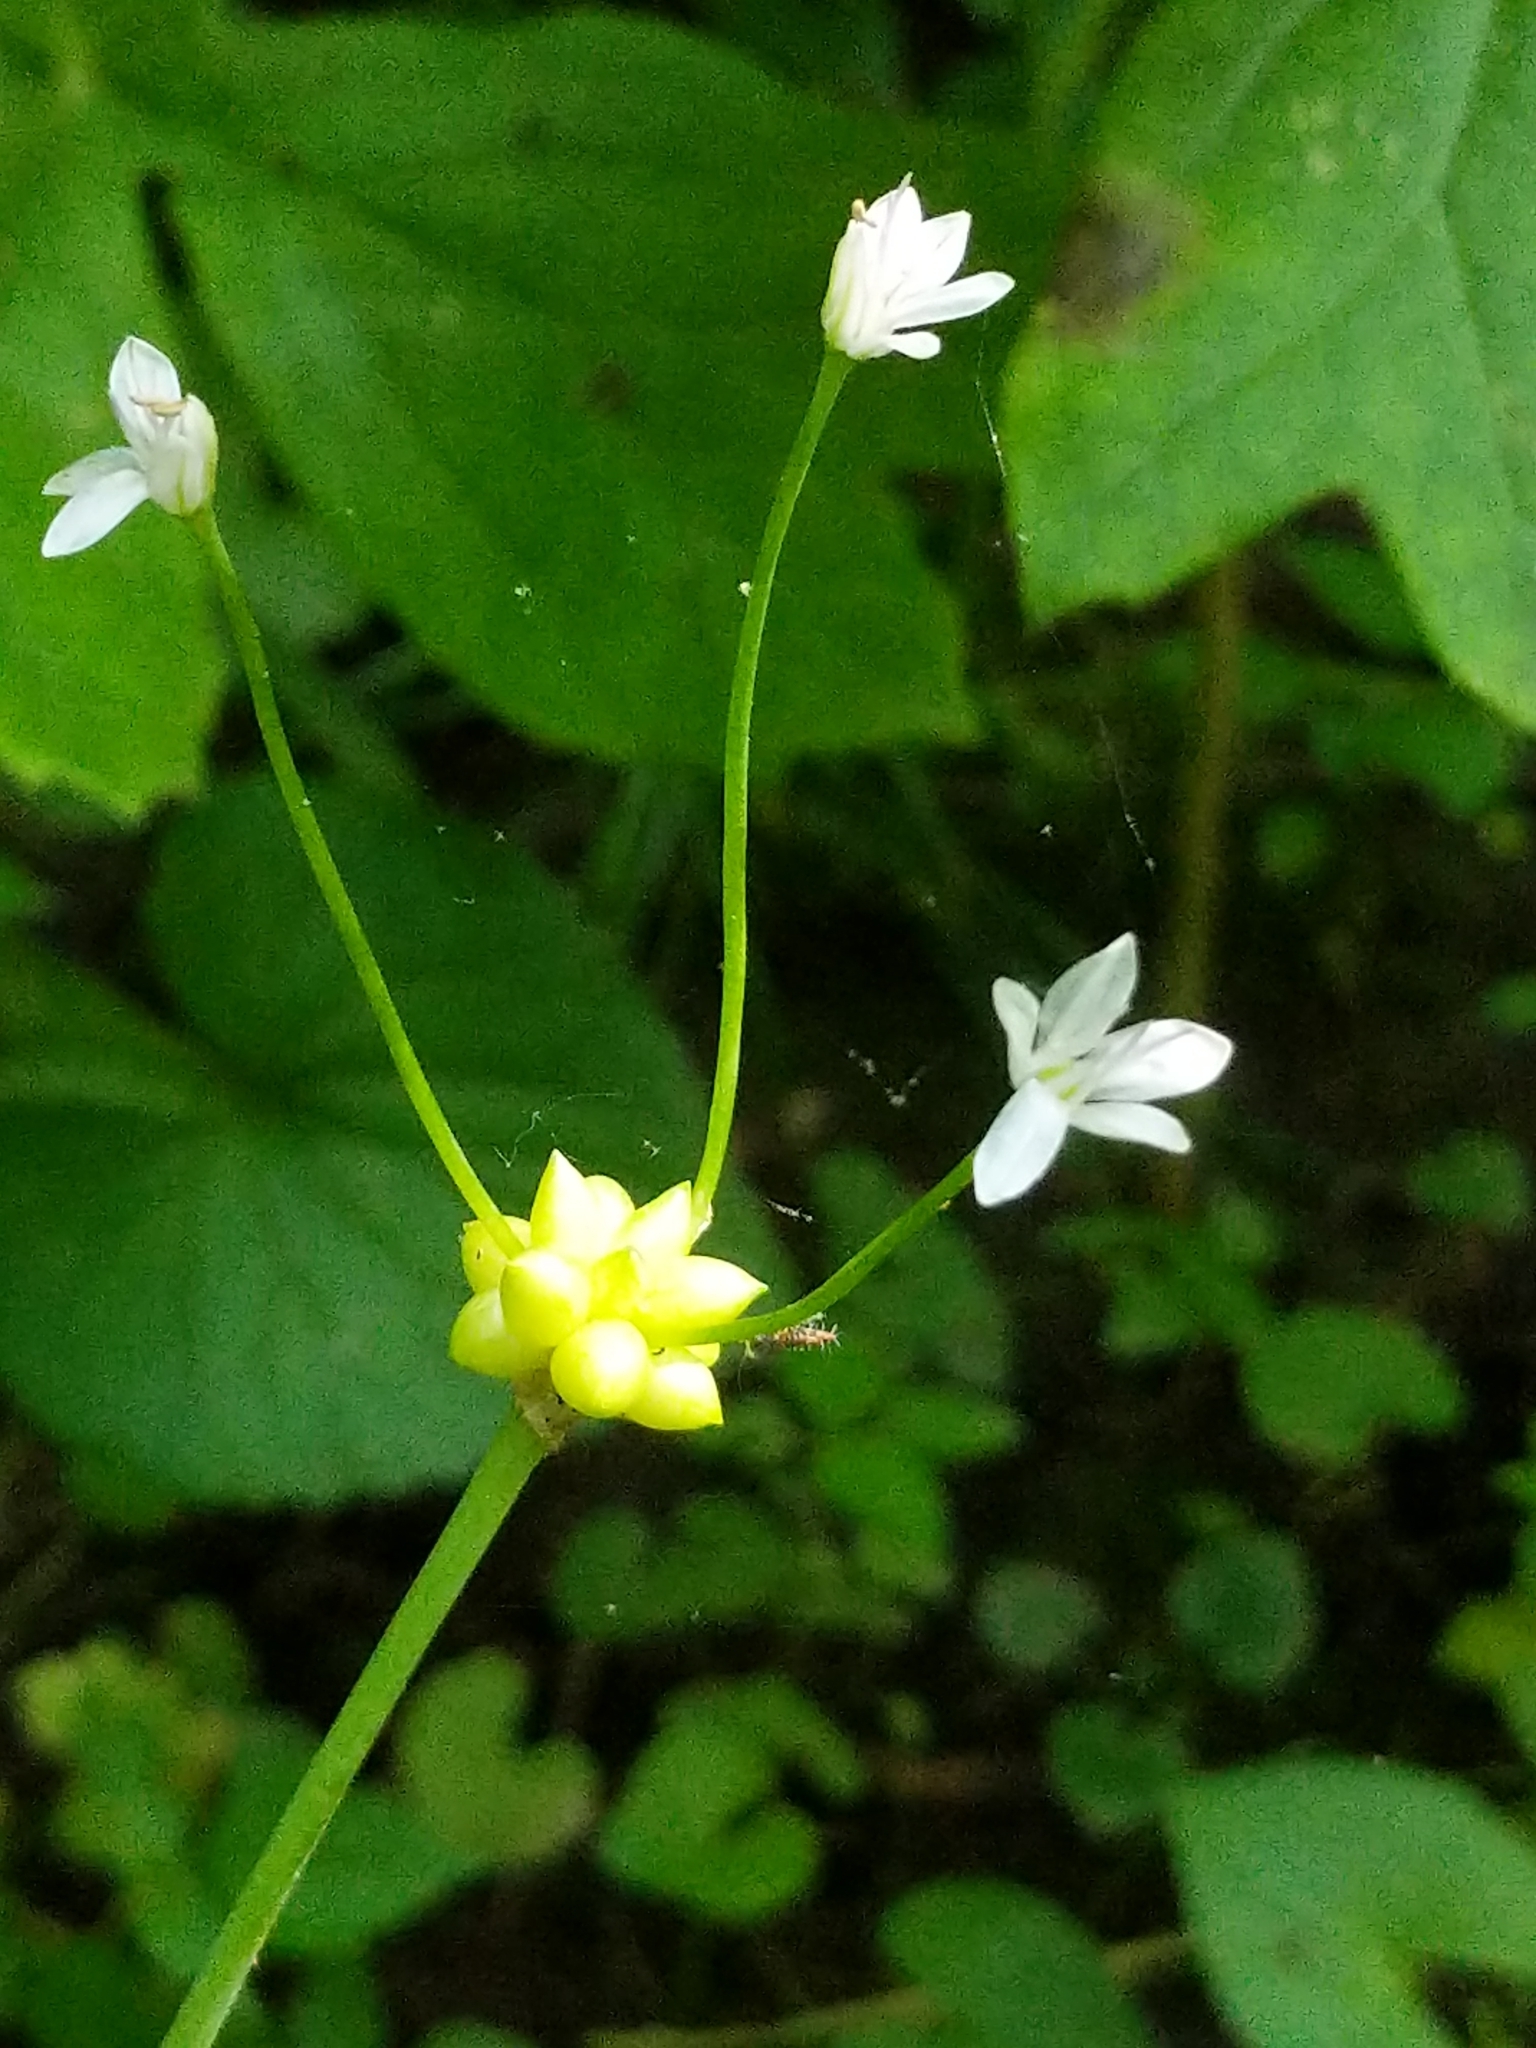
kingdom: Plantae
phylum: Tracheophyta
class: Liliopsida
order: Asparagales
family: Amaryllidaceae
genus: Allium
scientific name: Allium canadense
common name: Meadow garlic
